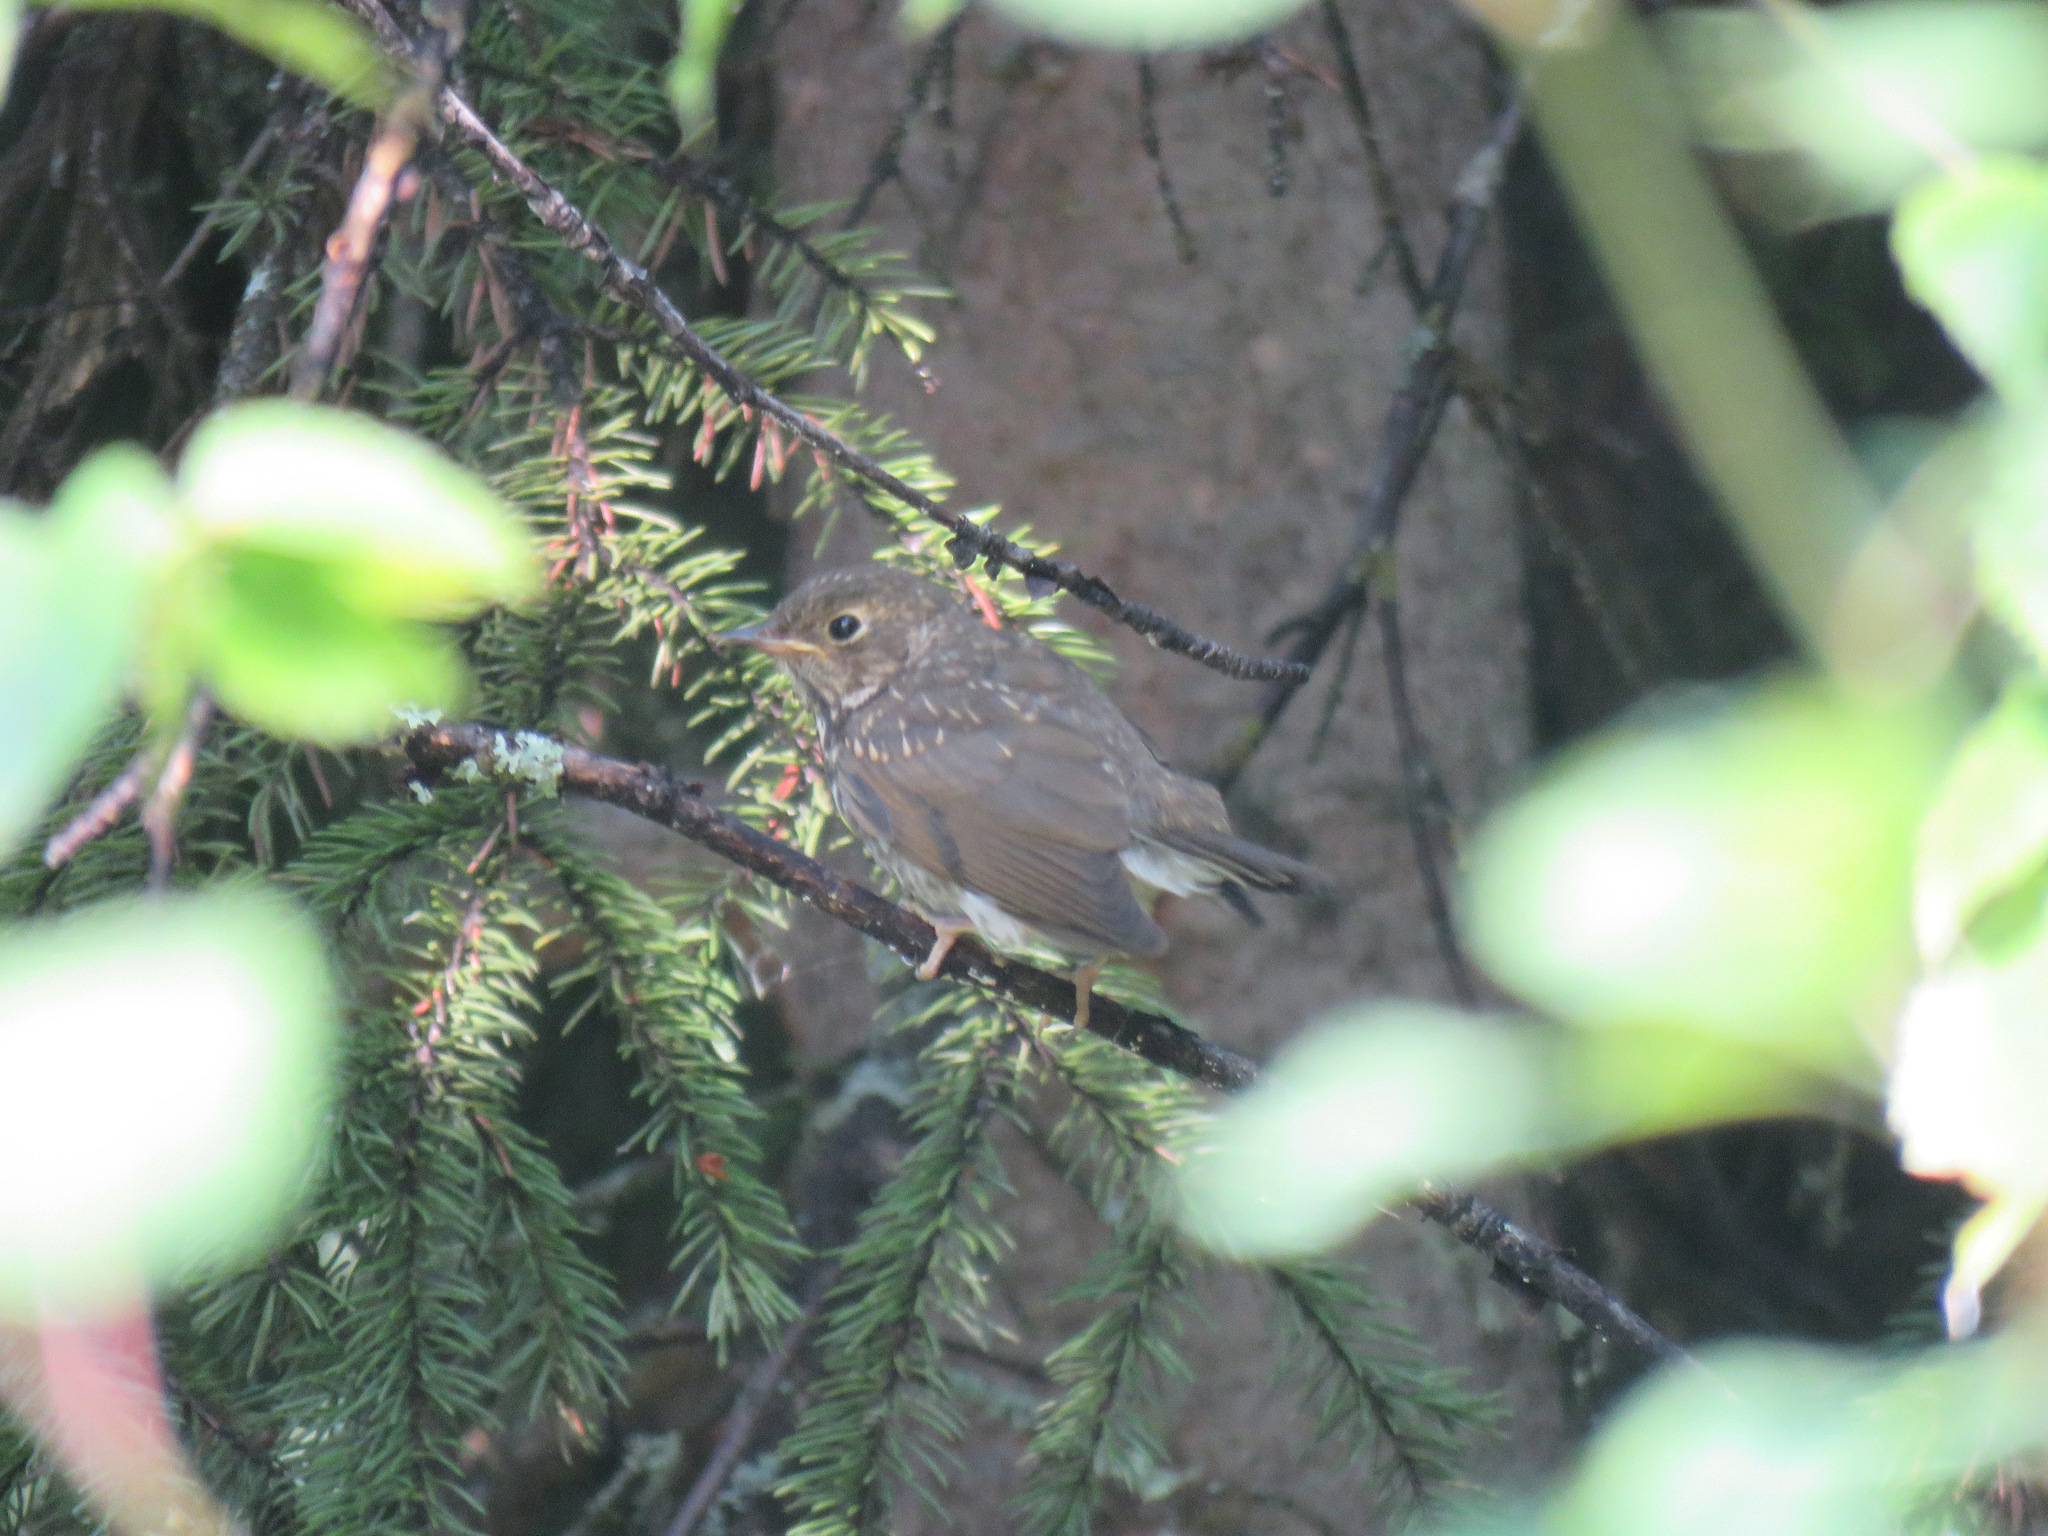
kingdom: Animalia
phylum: Chordata
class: Aves
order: Passeriformes
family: Turdidae
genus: Catharus
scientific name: Catharus ustulatus
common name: Swainson's thrush
